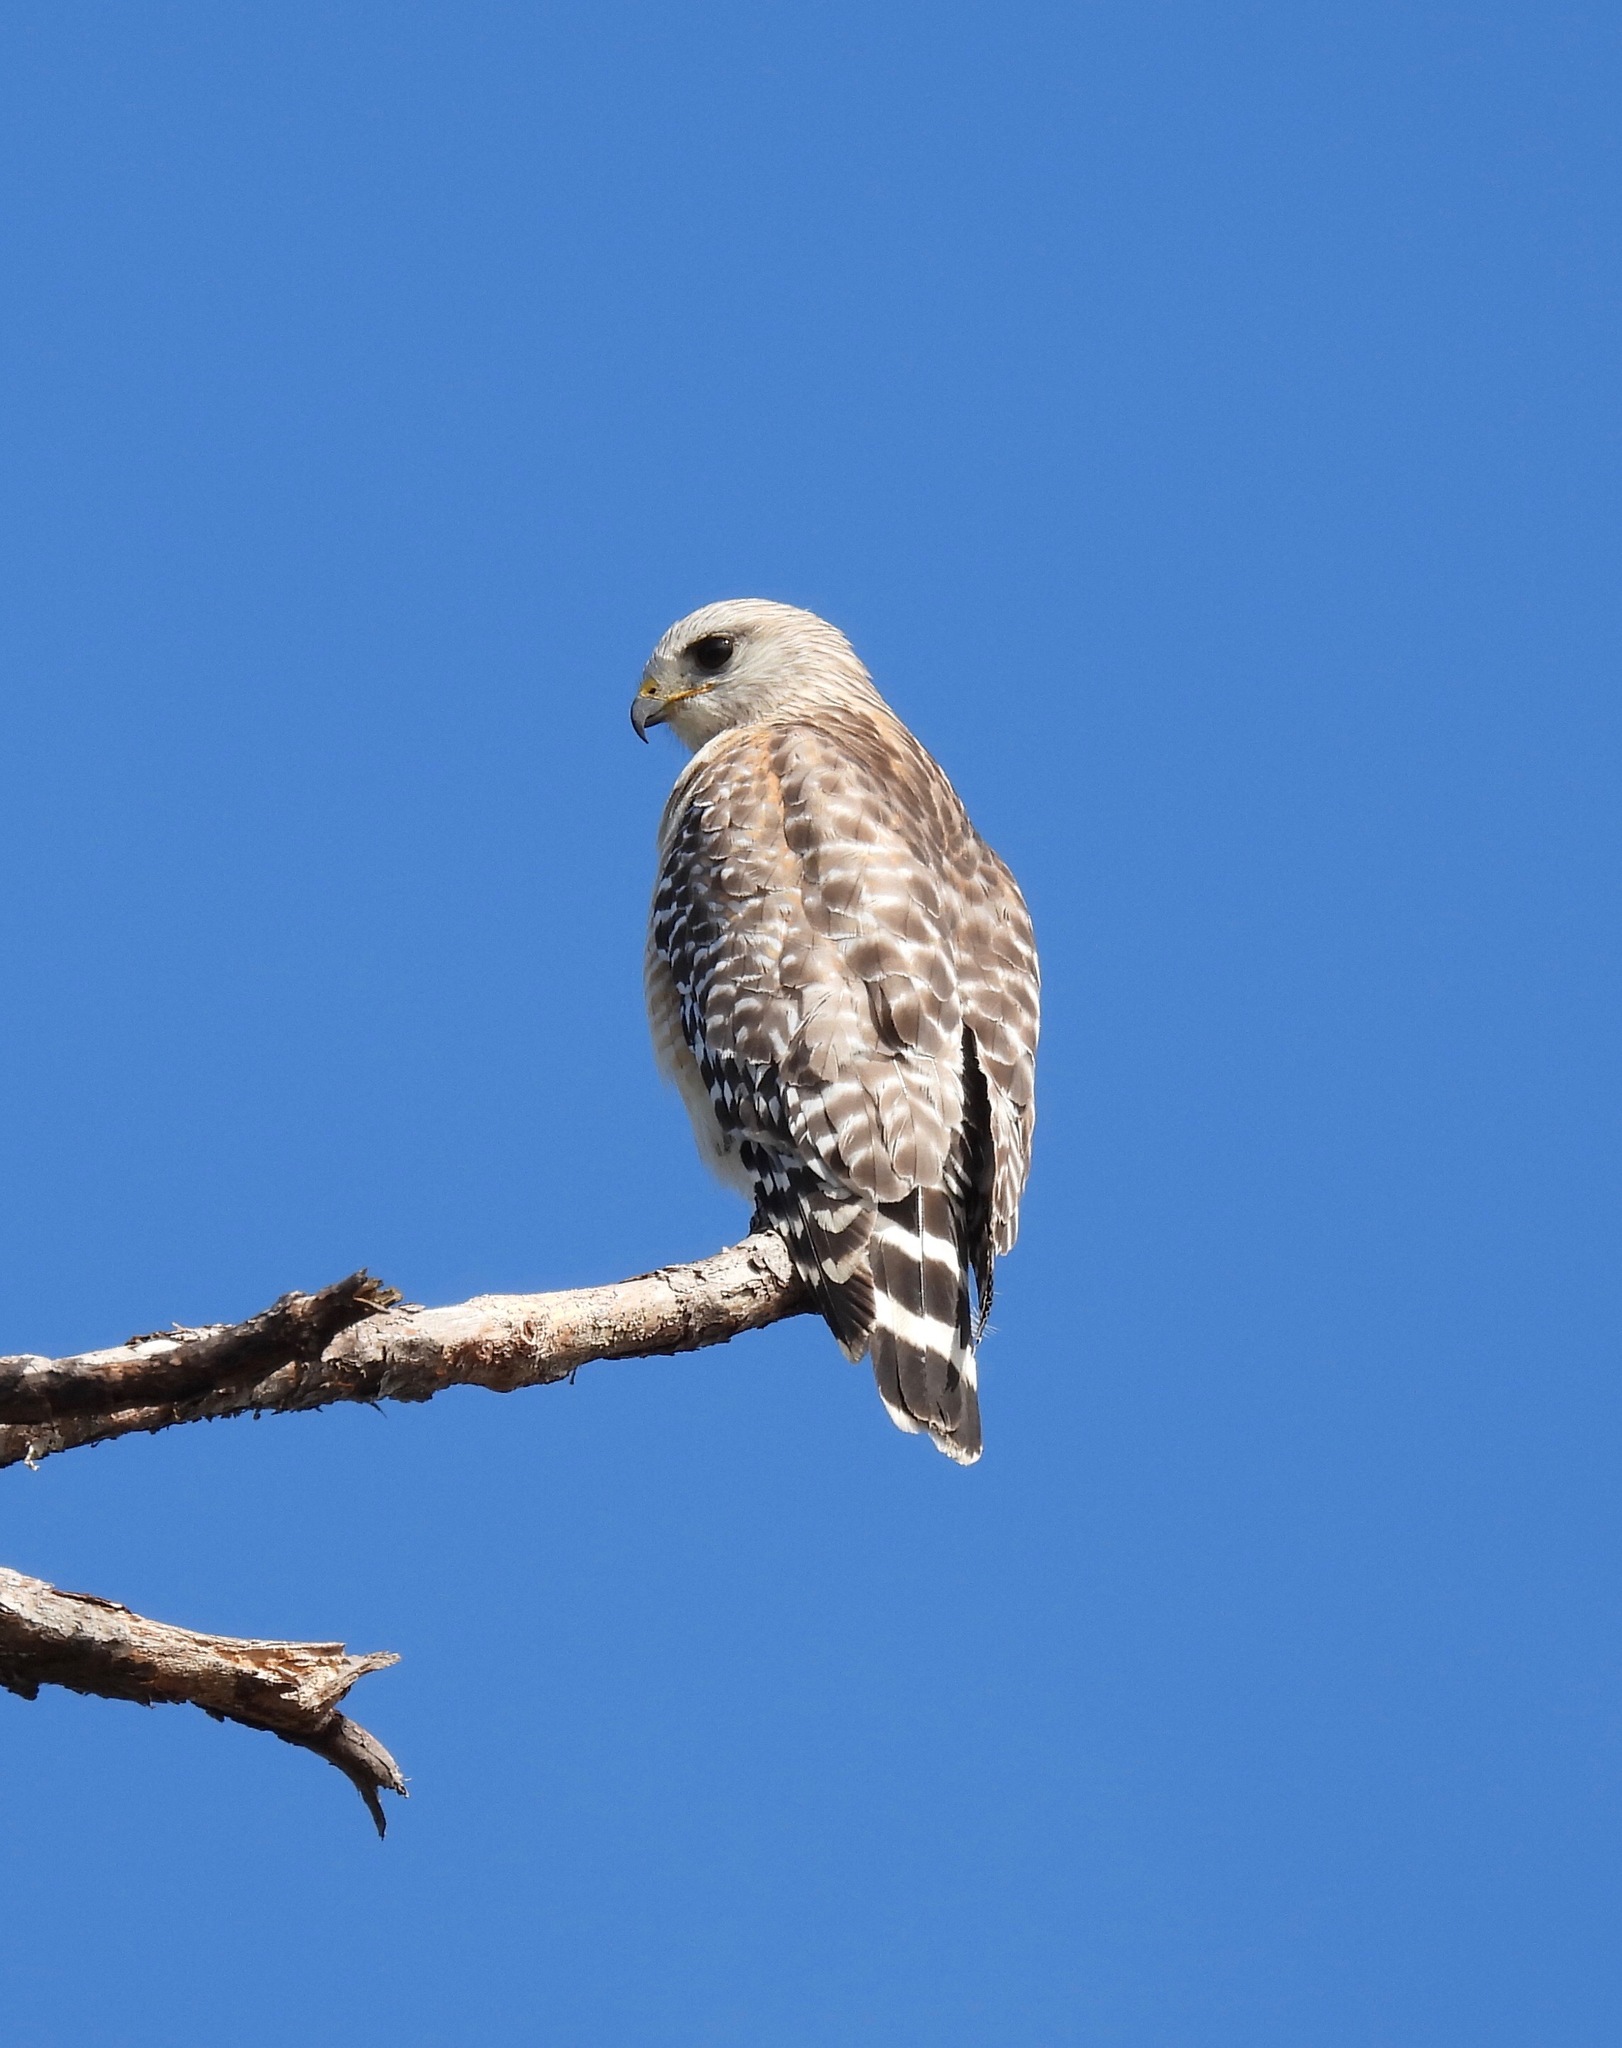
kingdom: Animalia
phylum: Chordata
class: Aves
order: Accipitriformes
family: Accipitridae
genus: Buteo
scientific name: Buteo lineatus
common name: Red-shouldered hawk
